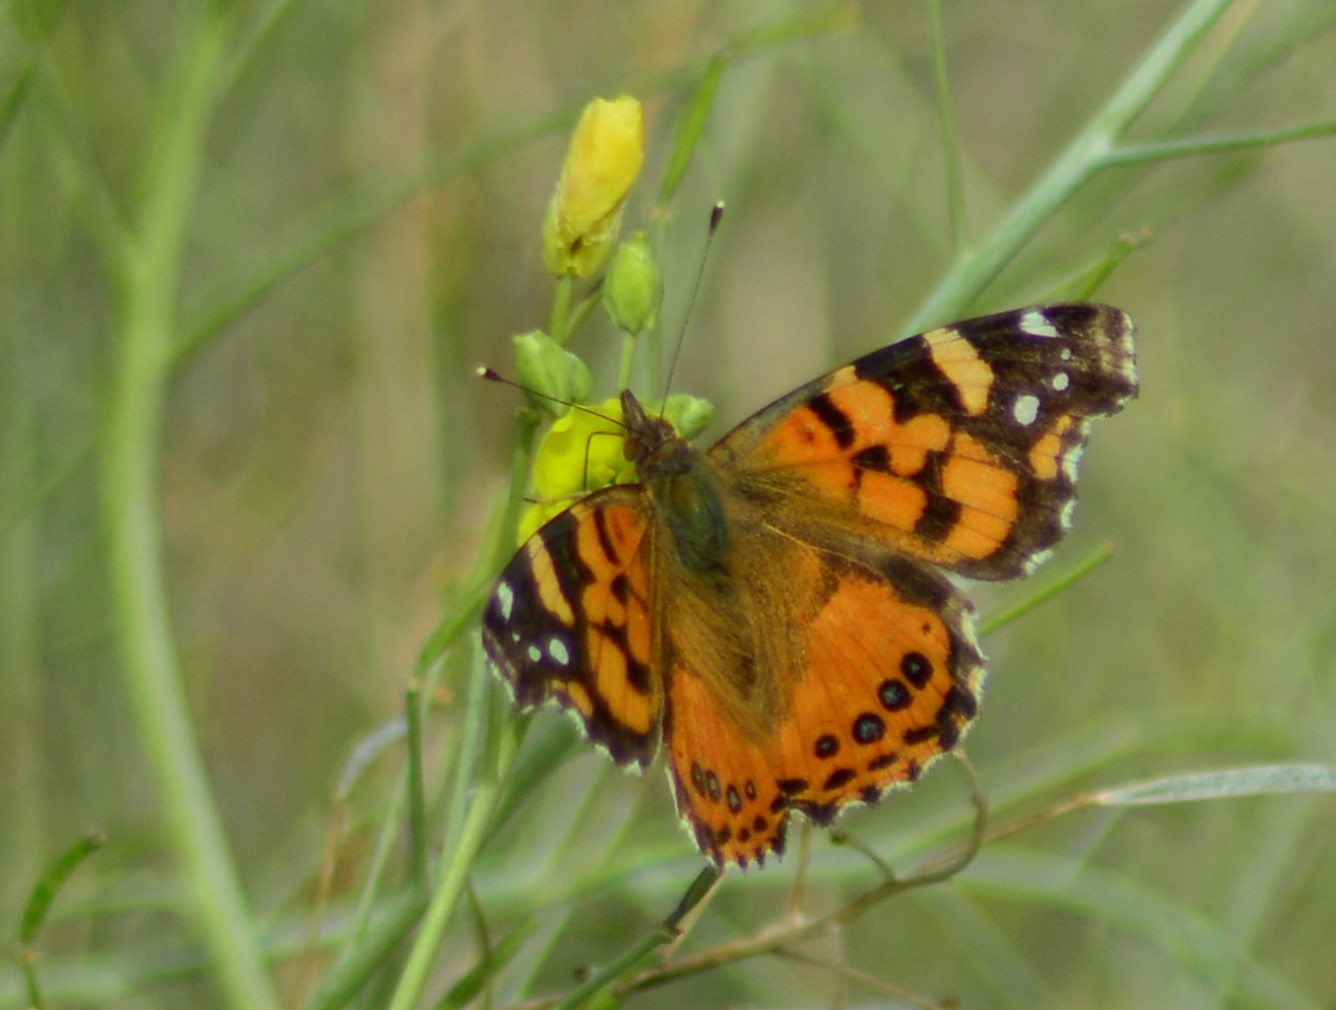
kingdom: Animalia
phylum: Arthropoda
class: Insecta
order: Lepidoptera
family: Nymphalidae
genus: Vanessa
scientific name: Vanessa carye
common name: Subtropical lady
